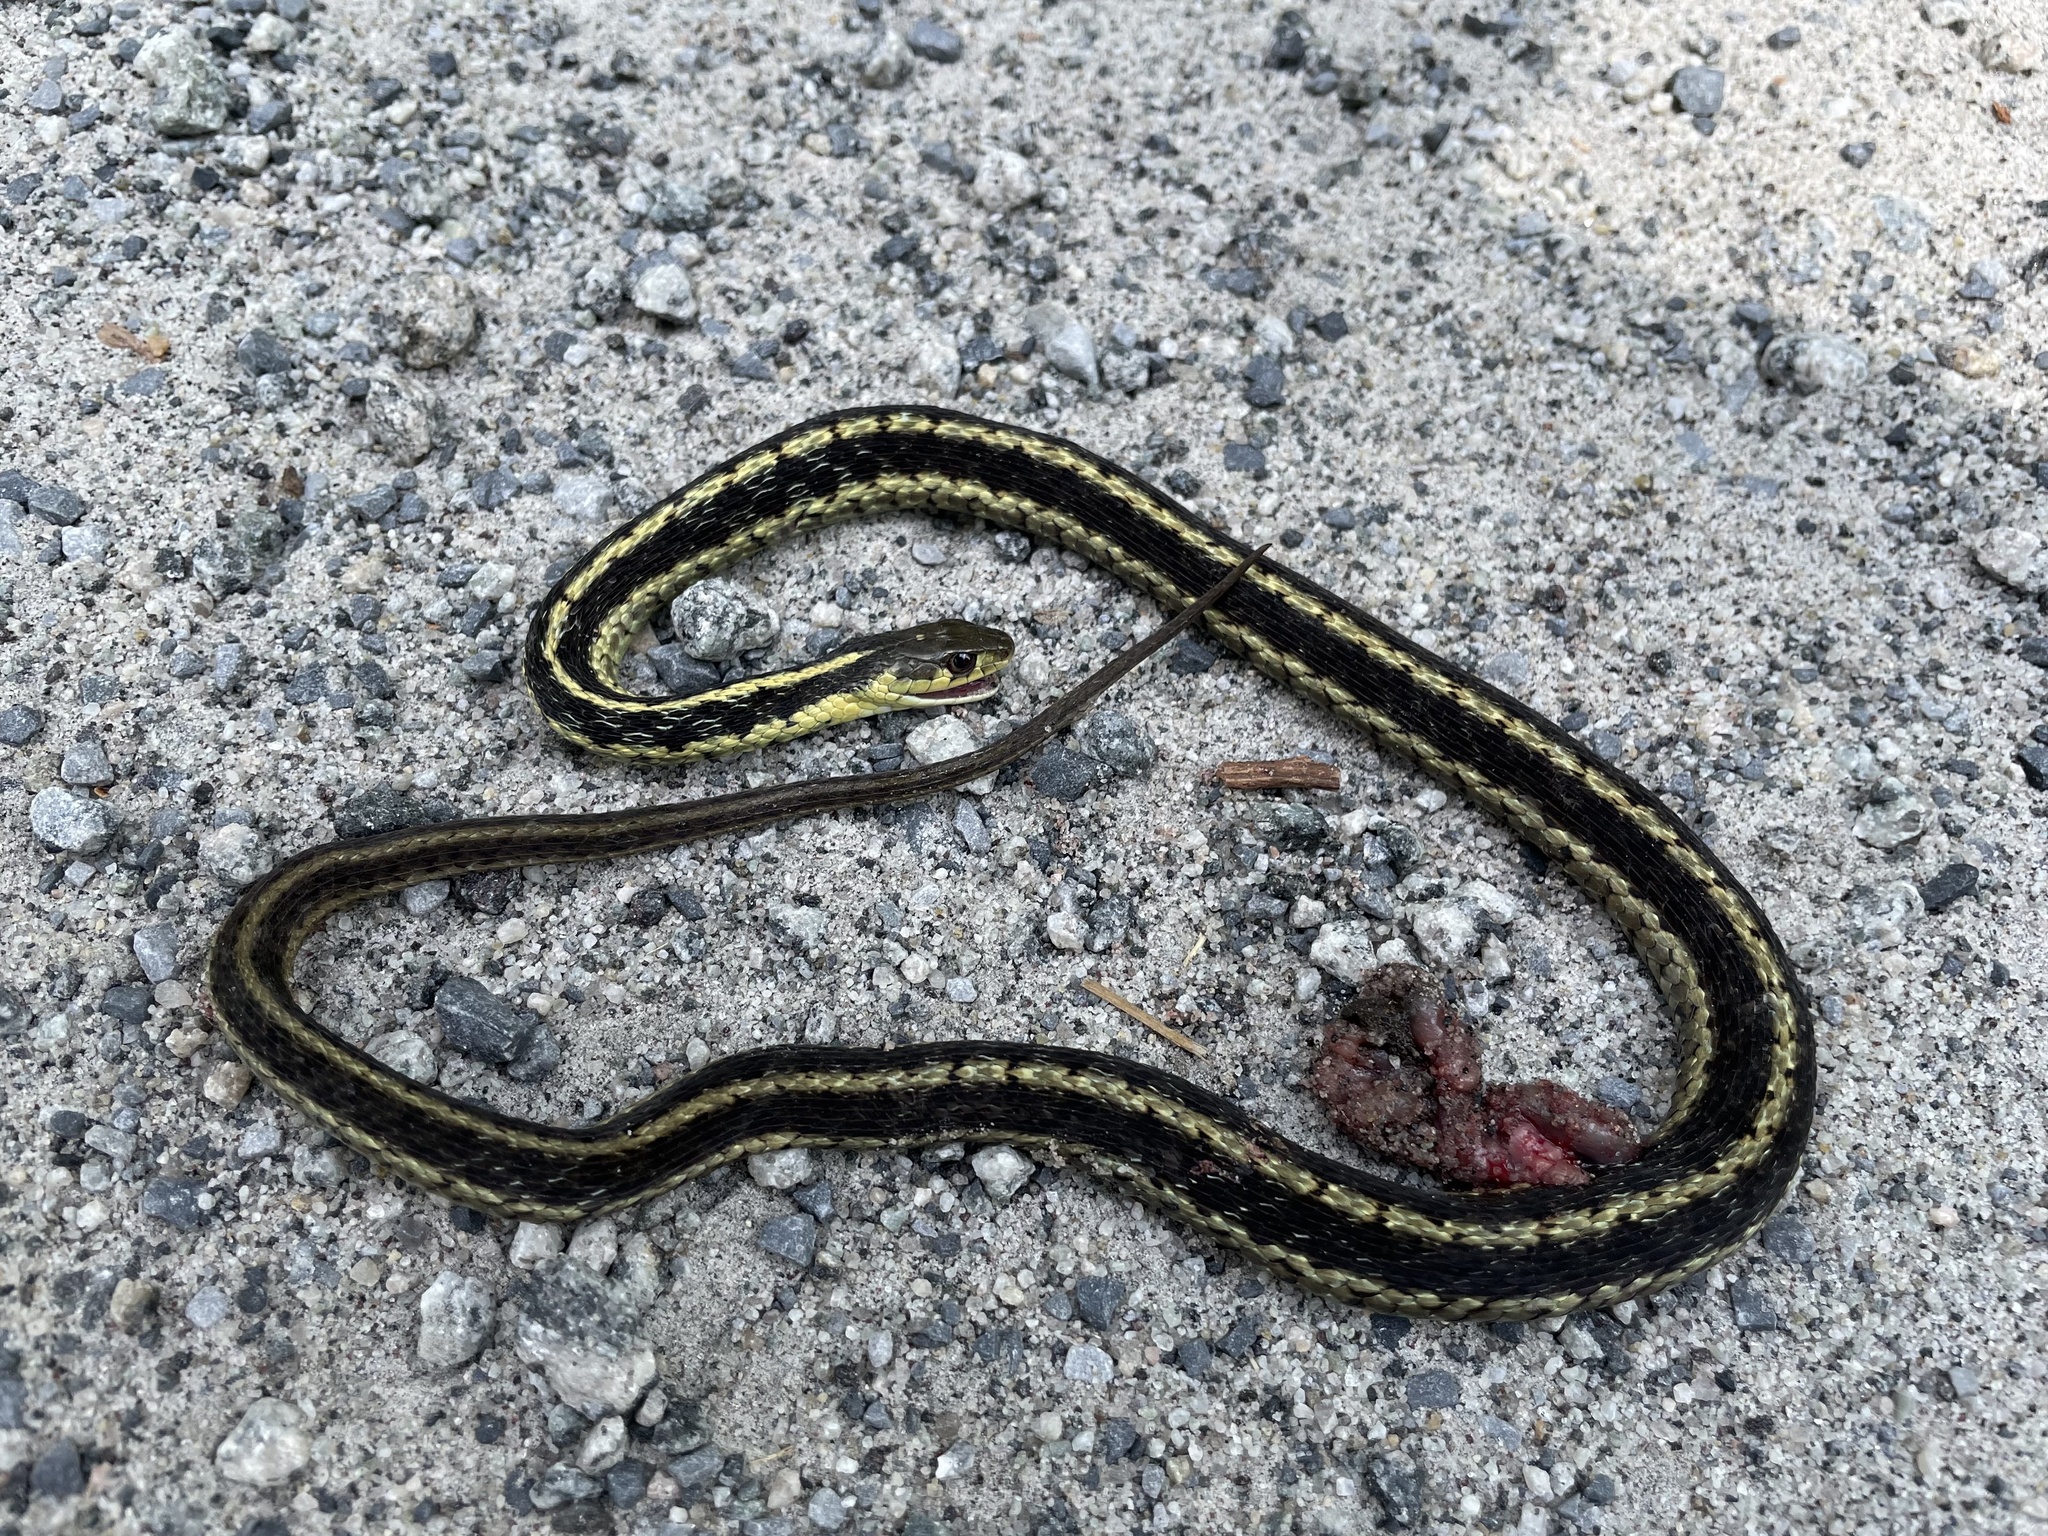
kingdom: Animalia
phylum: Chordata
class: Squamata
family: Colubridae
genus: Thamnophis
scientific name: Thamnophis sirtalis
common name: Common garter snake
